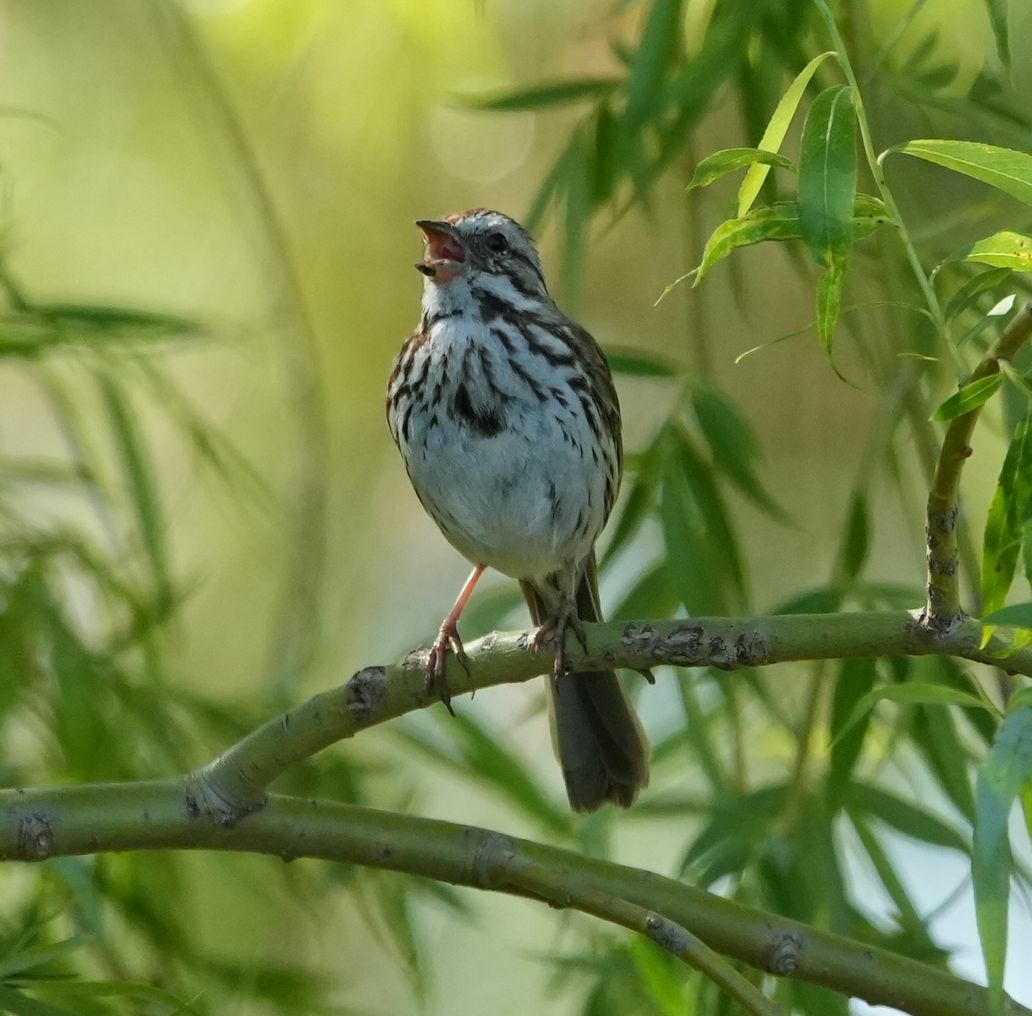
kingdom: Animalia
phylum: Chordata
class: Aves
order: Passeriformes
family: Passerellidae
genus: Melospiza
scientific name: Melospiza melodia
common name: Song sparrow
